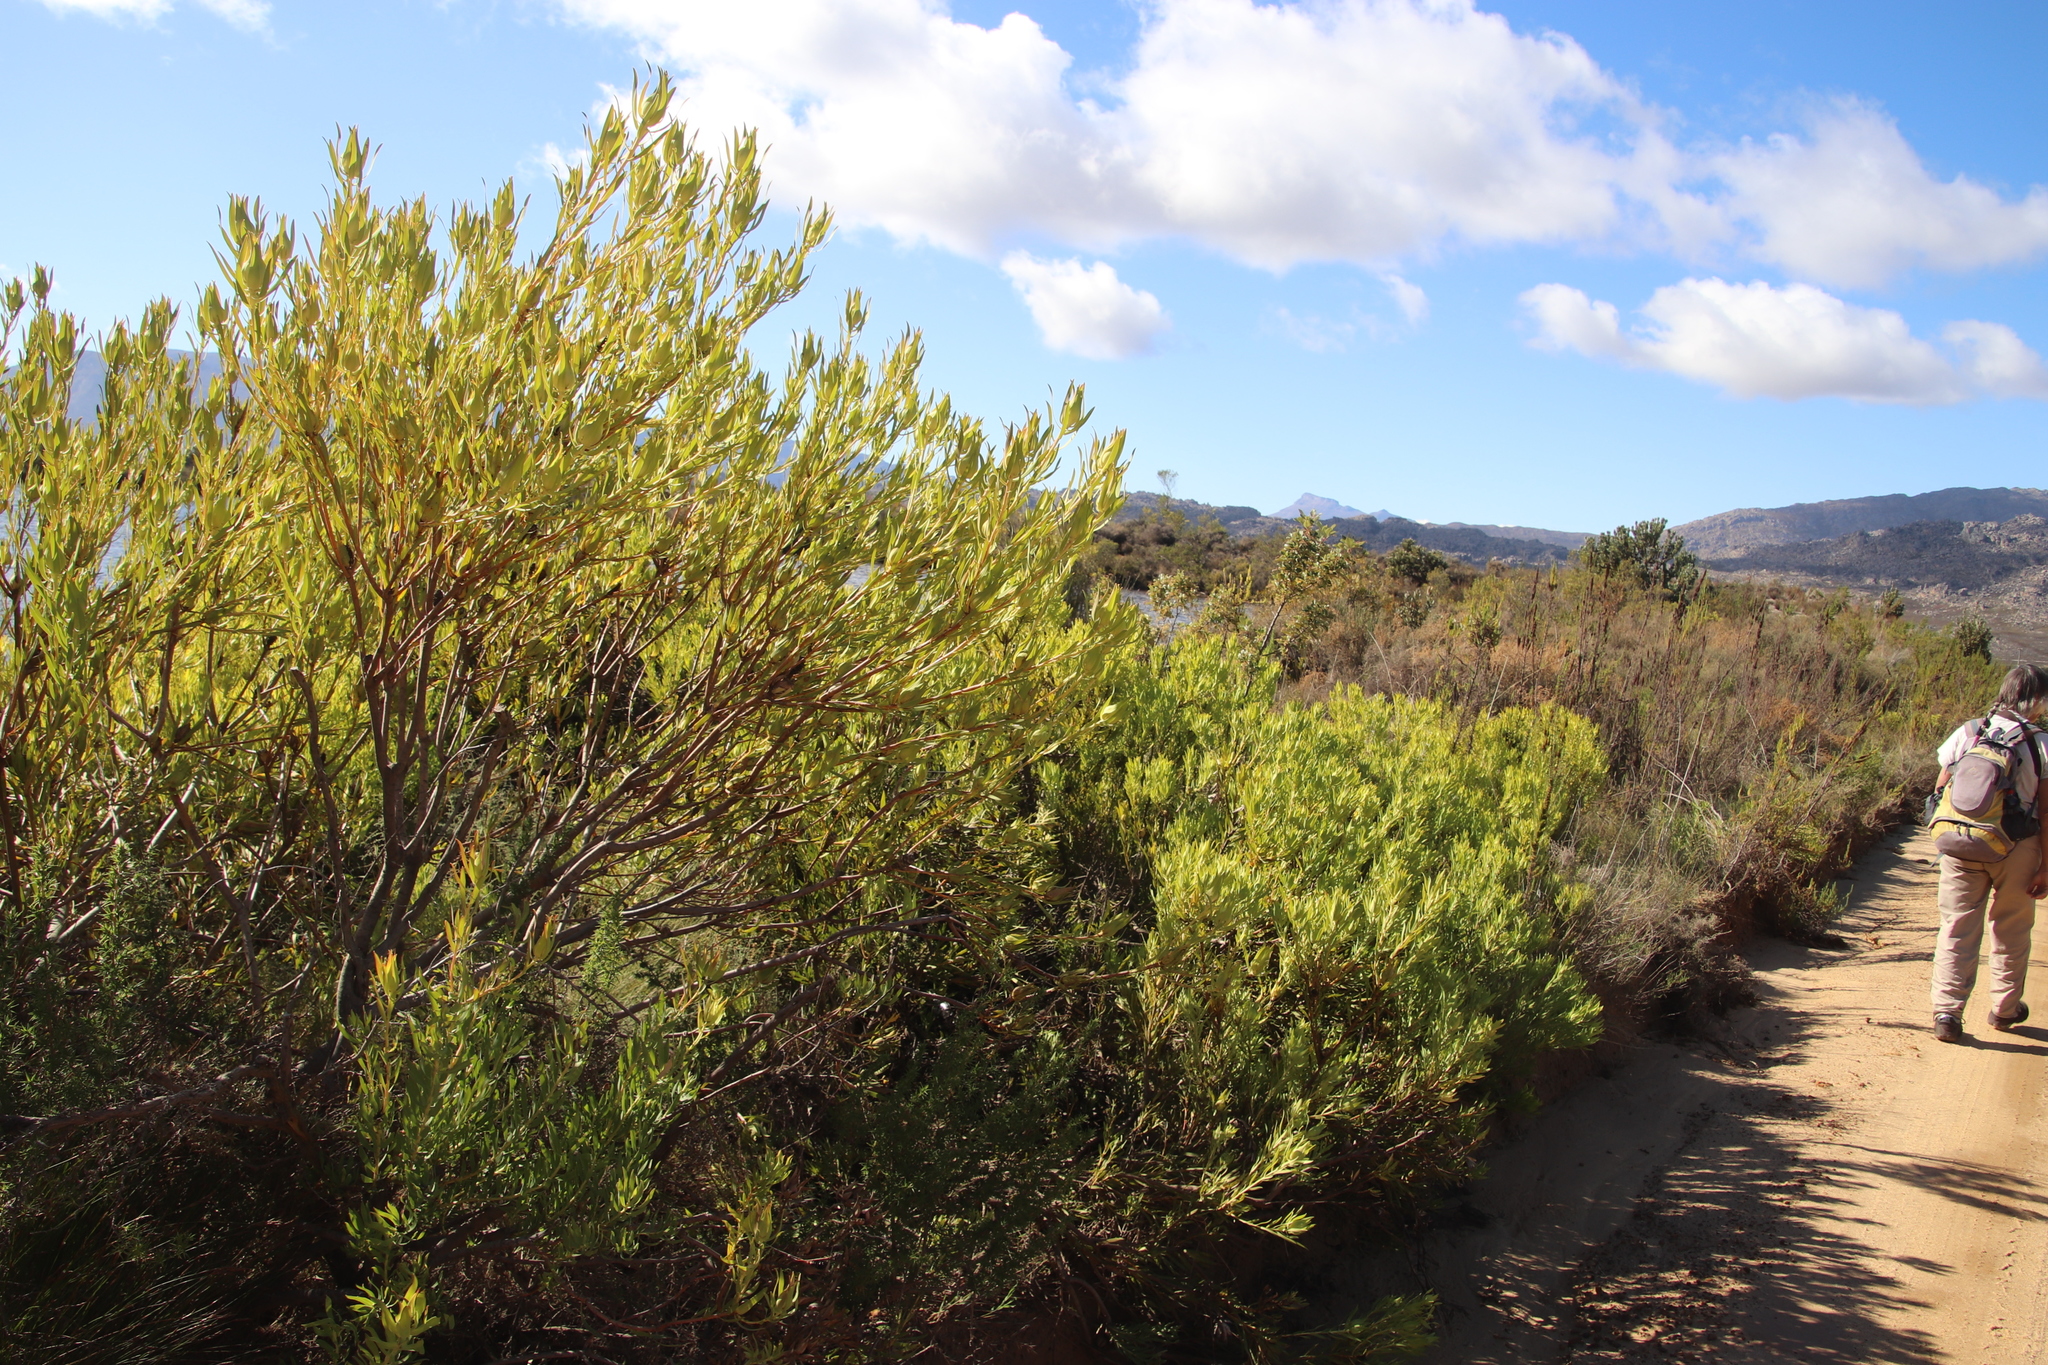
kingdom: Plantae
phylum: Tracheophyta
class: Magnoliopsida
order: Proteales
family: Proteaceae
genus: Leucadendron
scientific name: Leucadendron salignum
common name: Common sunshine conebush
